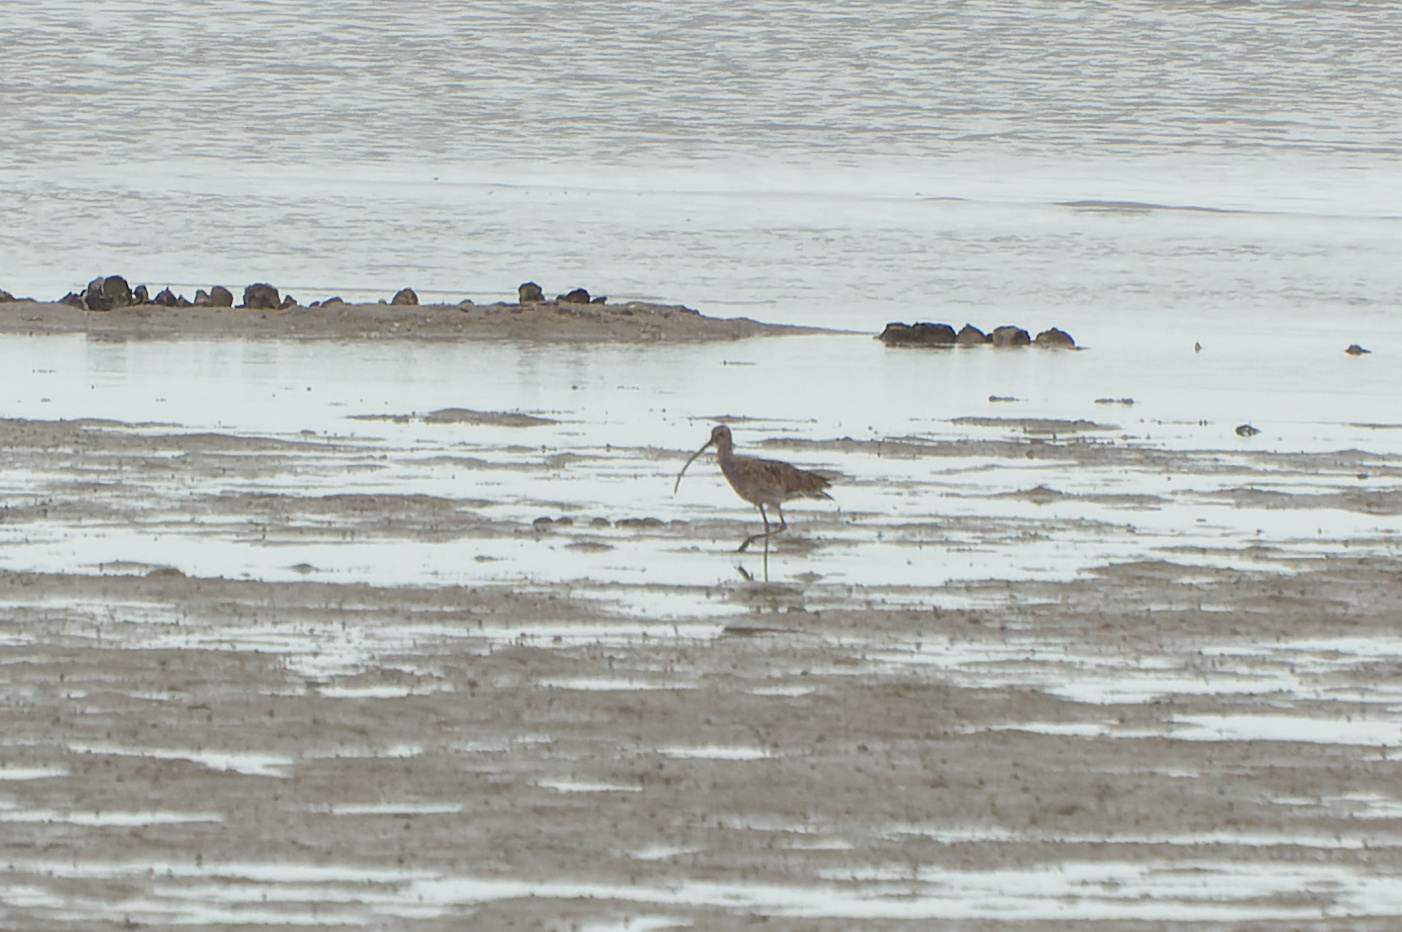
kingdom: Animalia
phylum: Chordata
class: Aves
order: Charadriiformes
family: Scolopacidae
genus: Numenius
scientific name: Numenius madagascariensis
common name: Far eastern curlew
